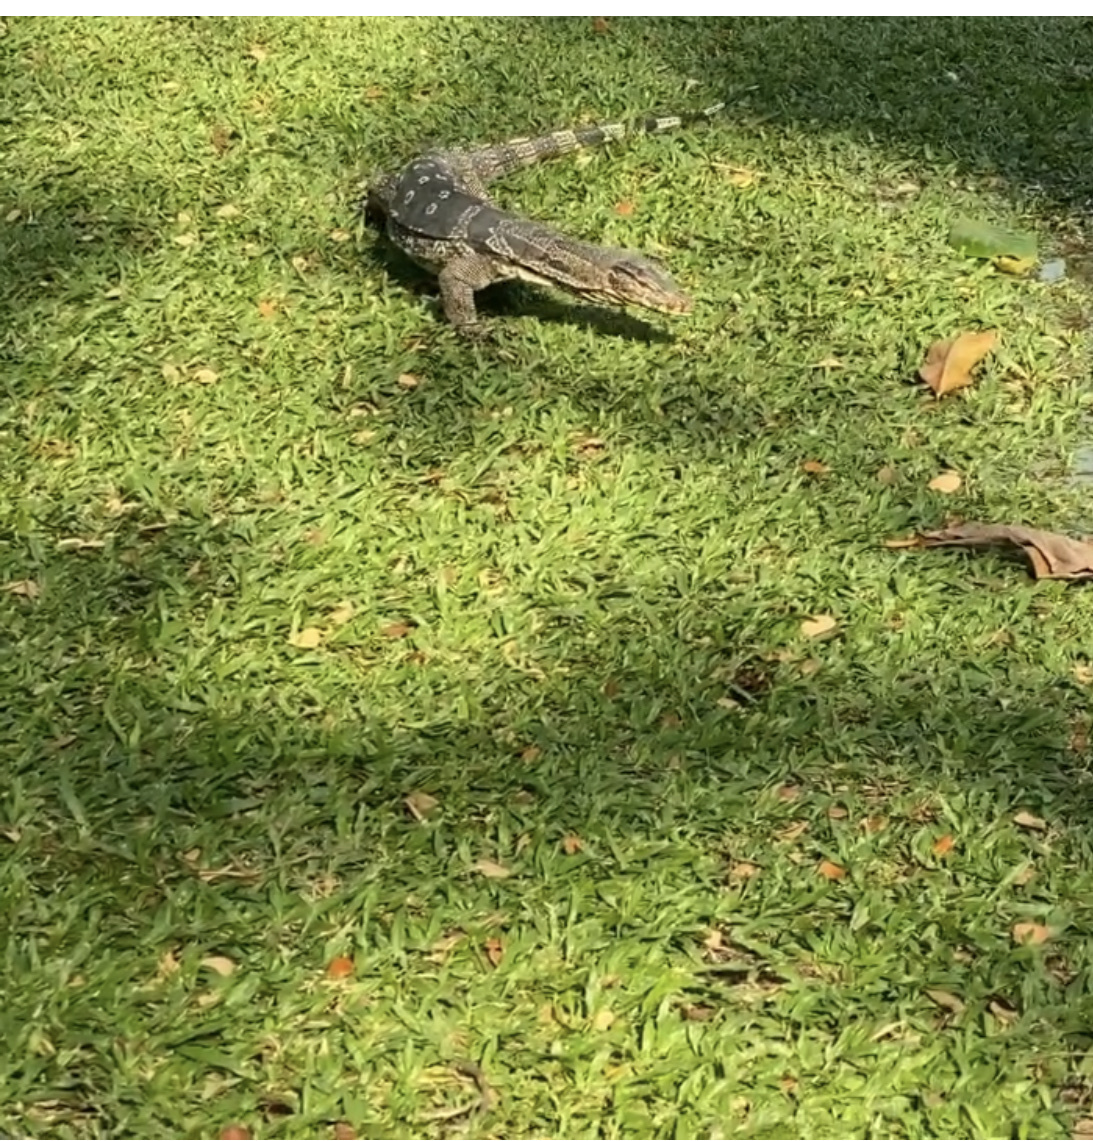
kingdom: Animalia
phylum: Chordata
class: Squamata
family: Varanidae
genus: Varanus
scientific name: Varanus salvator
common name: Common water monitor
